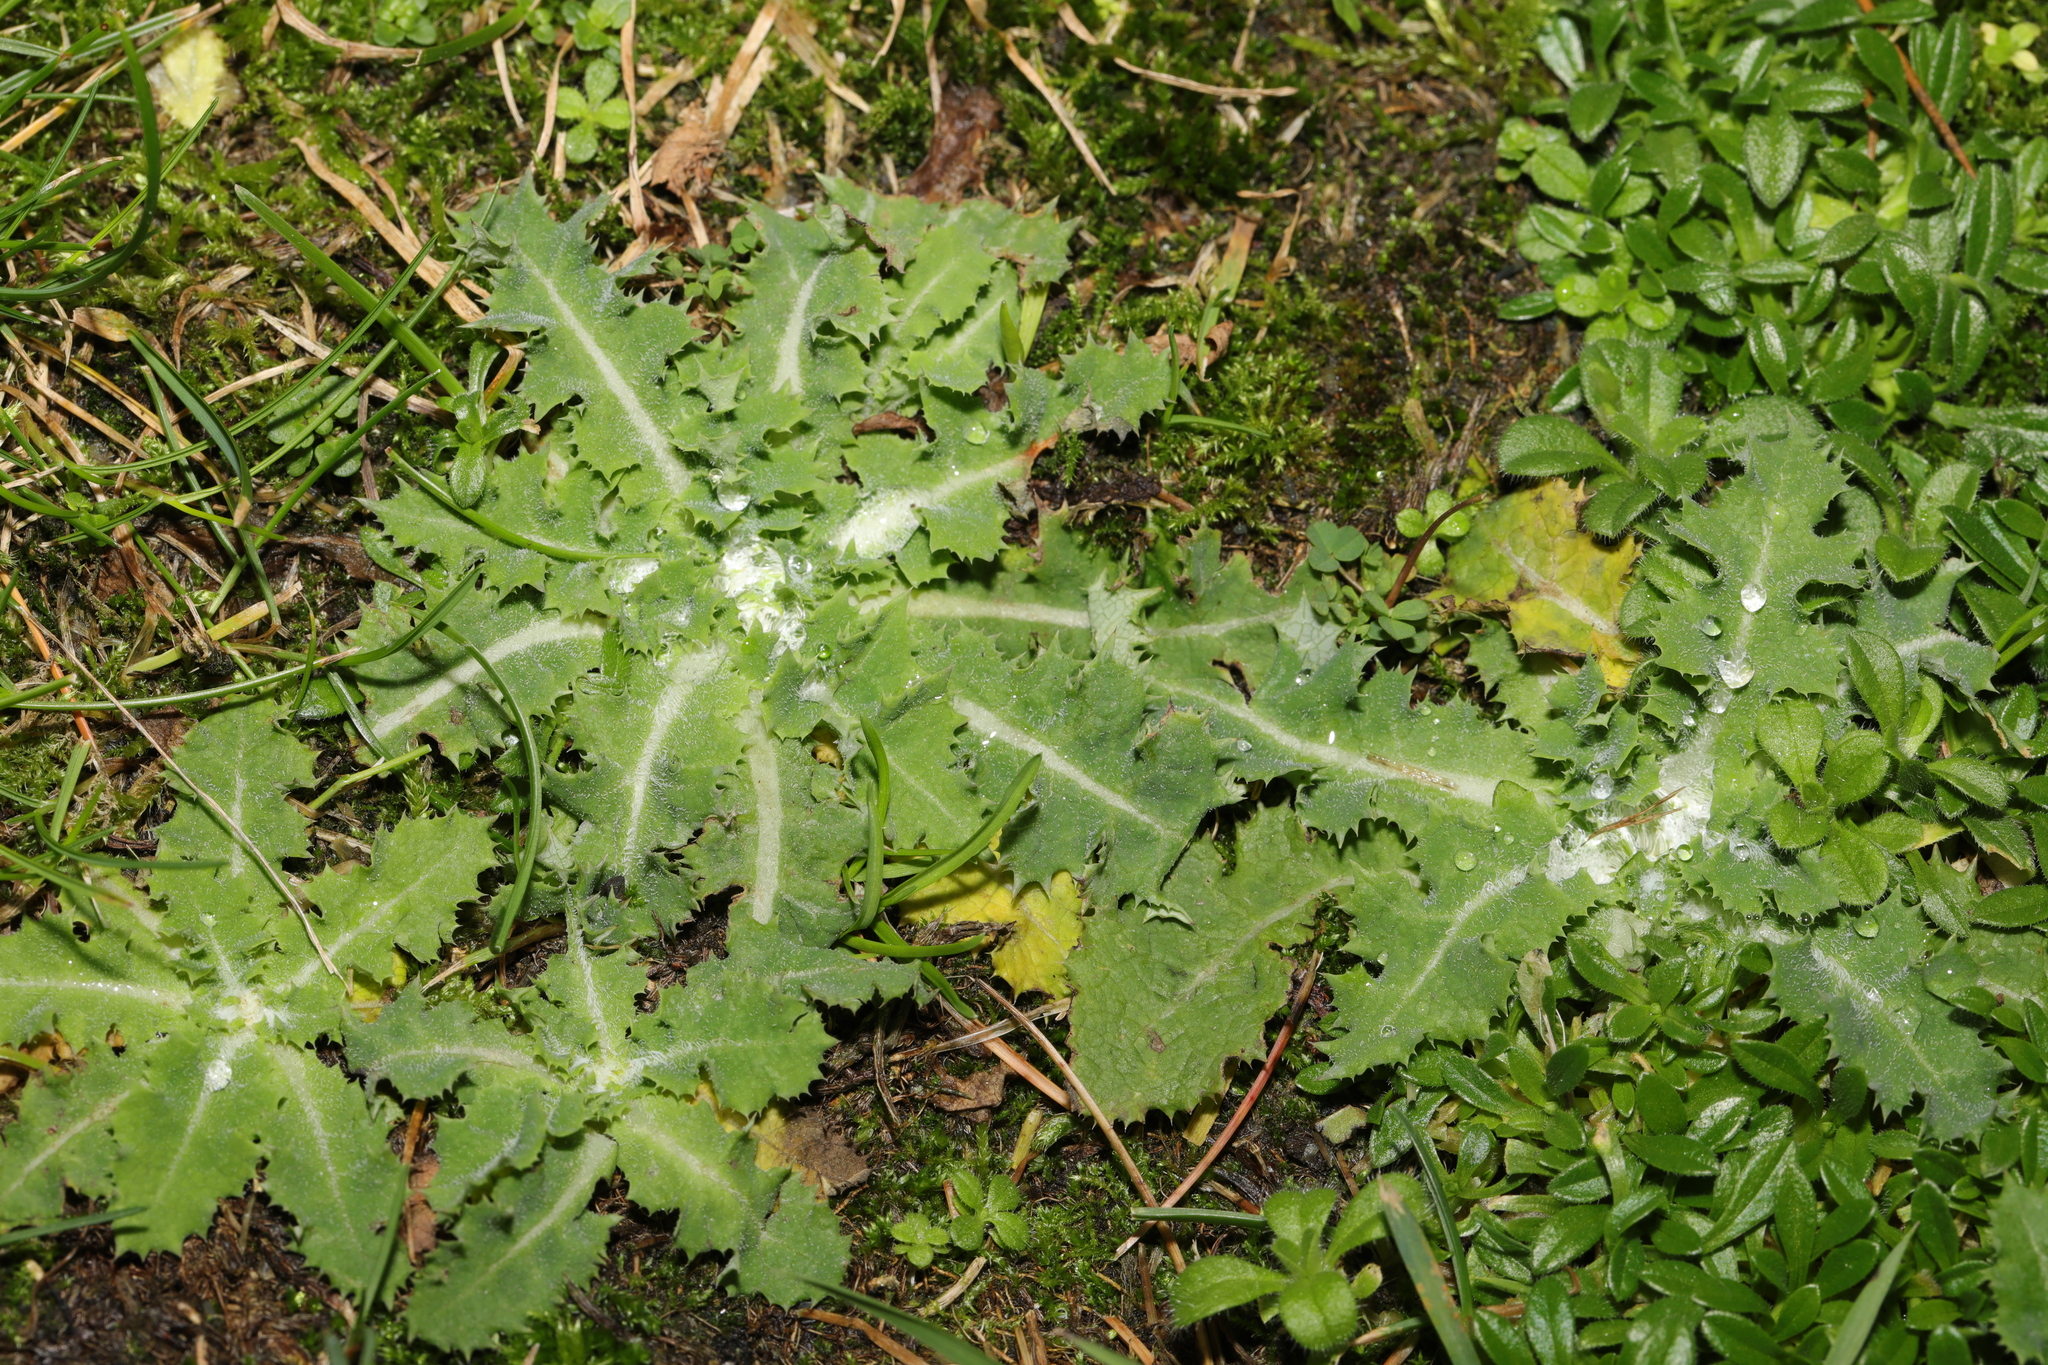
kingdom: Plantae
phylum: Tracheophyta
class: Magnoliopsida
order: Asterales
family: Asteraceae
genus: Sonchus
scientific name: Sonchus asper
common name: Prickly sow-thistle
